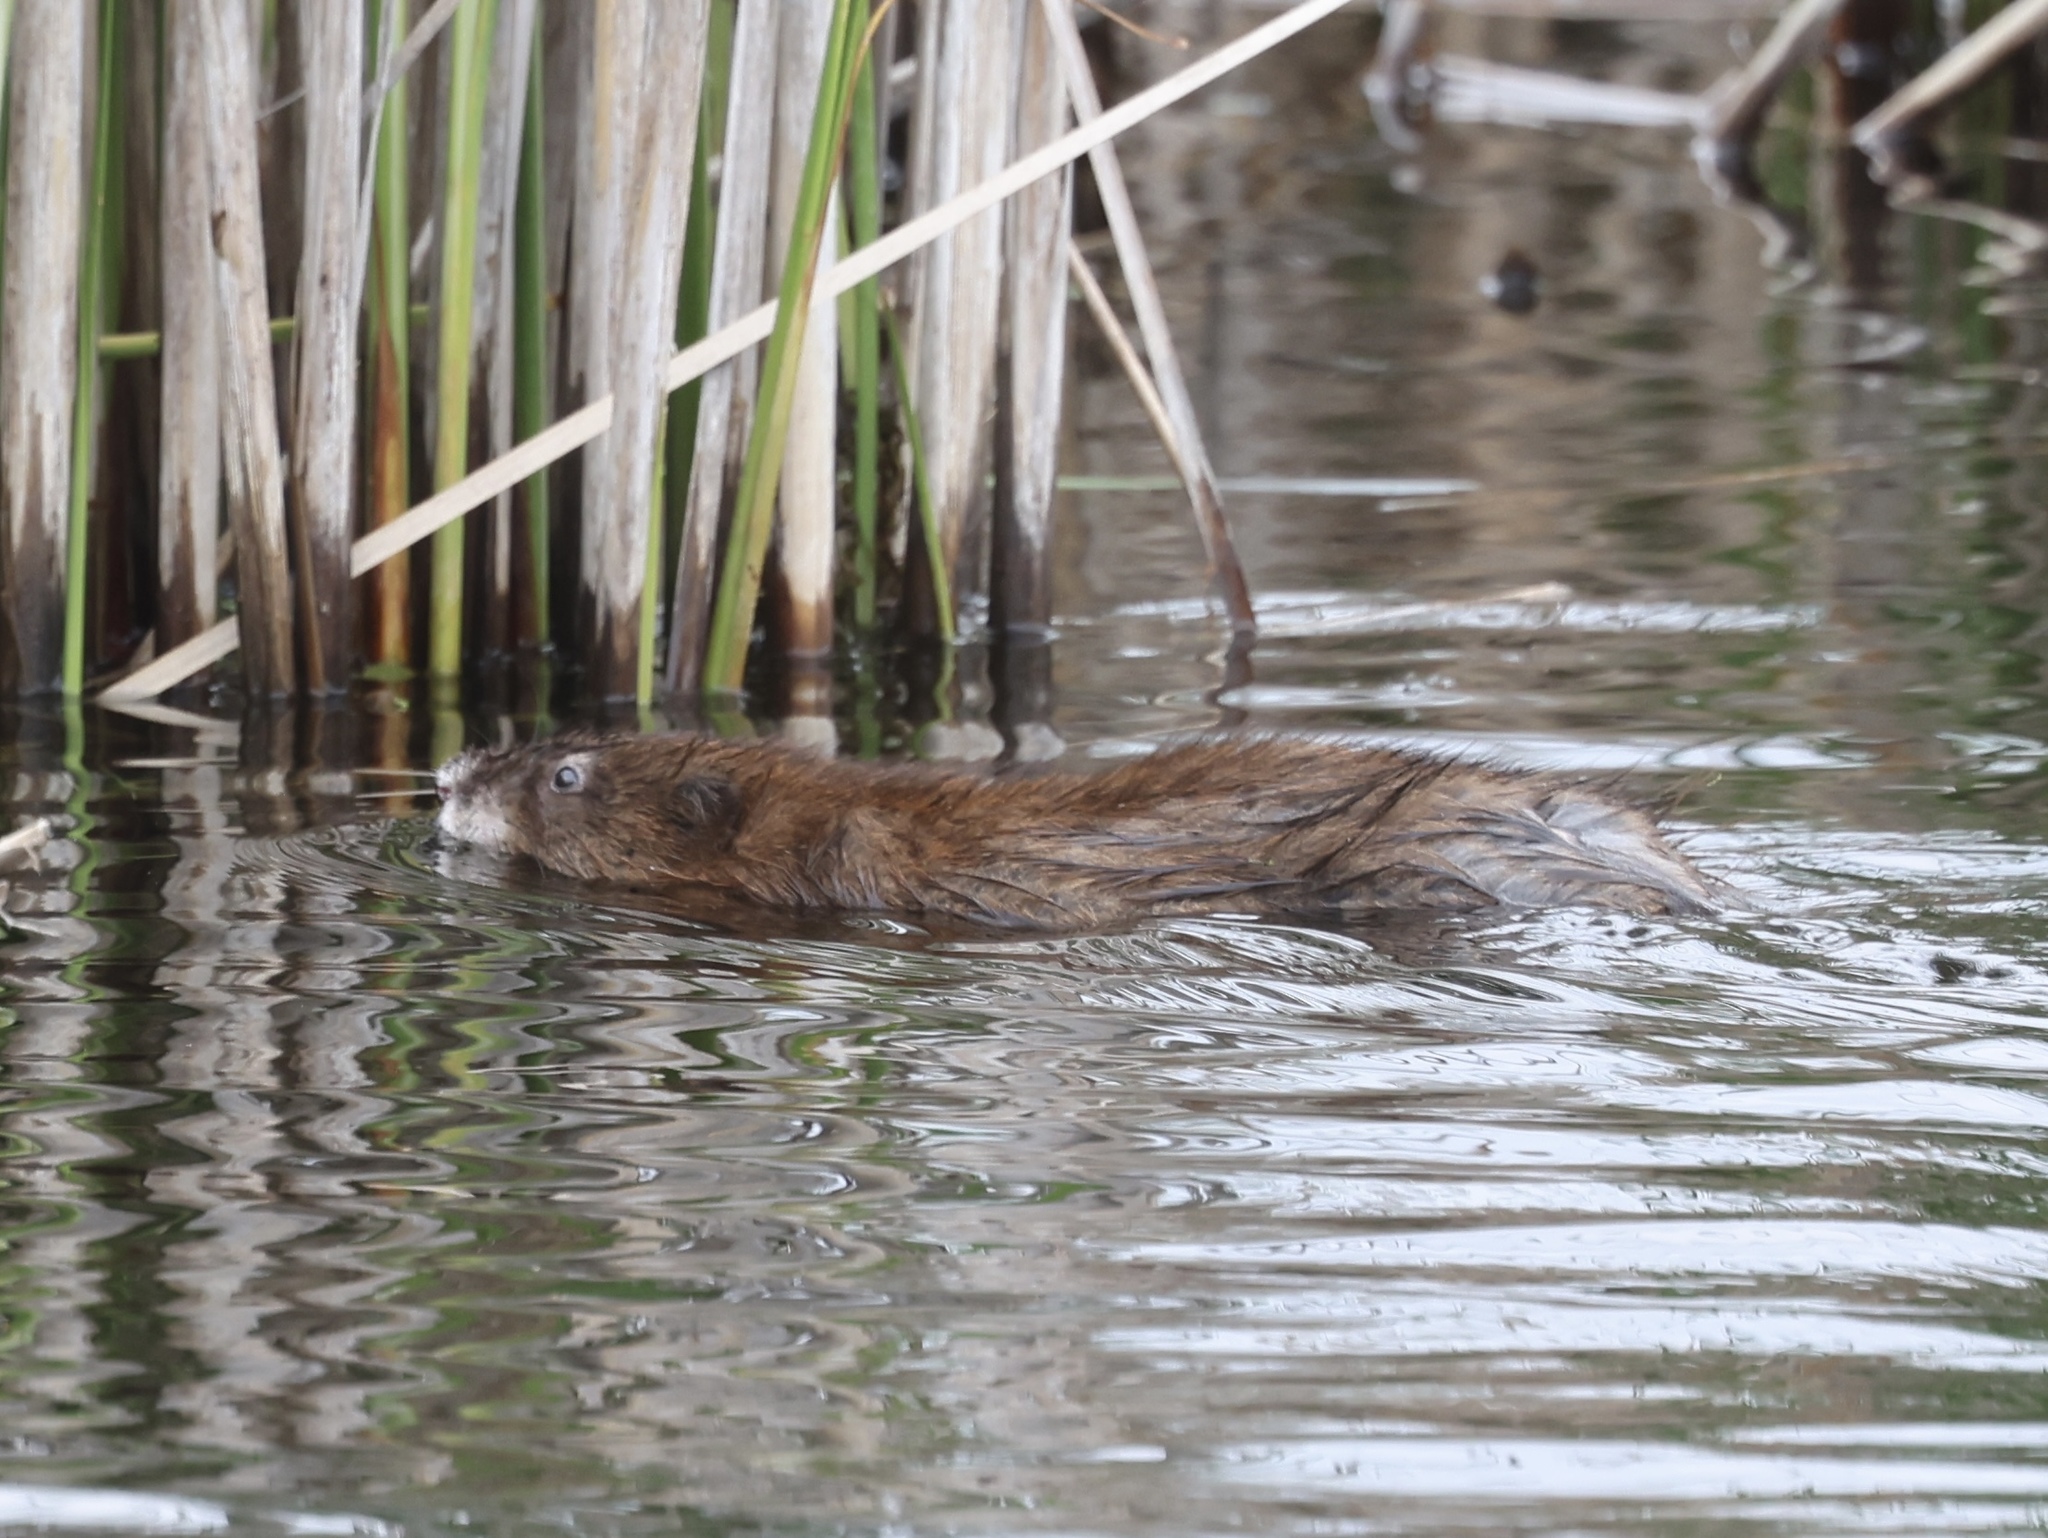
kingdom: Animalia
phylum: Chordata
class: Mammalia
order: Rodentia
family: Cricetidae
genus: Ondatra
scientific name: Ondatra zibethicus
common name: Muskrat
